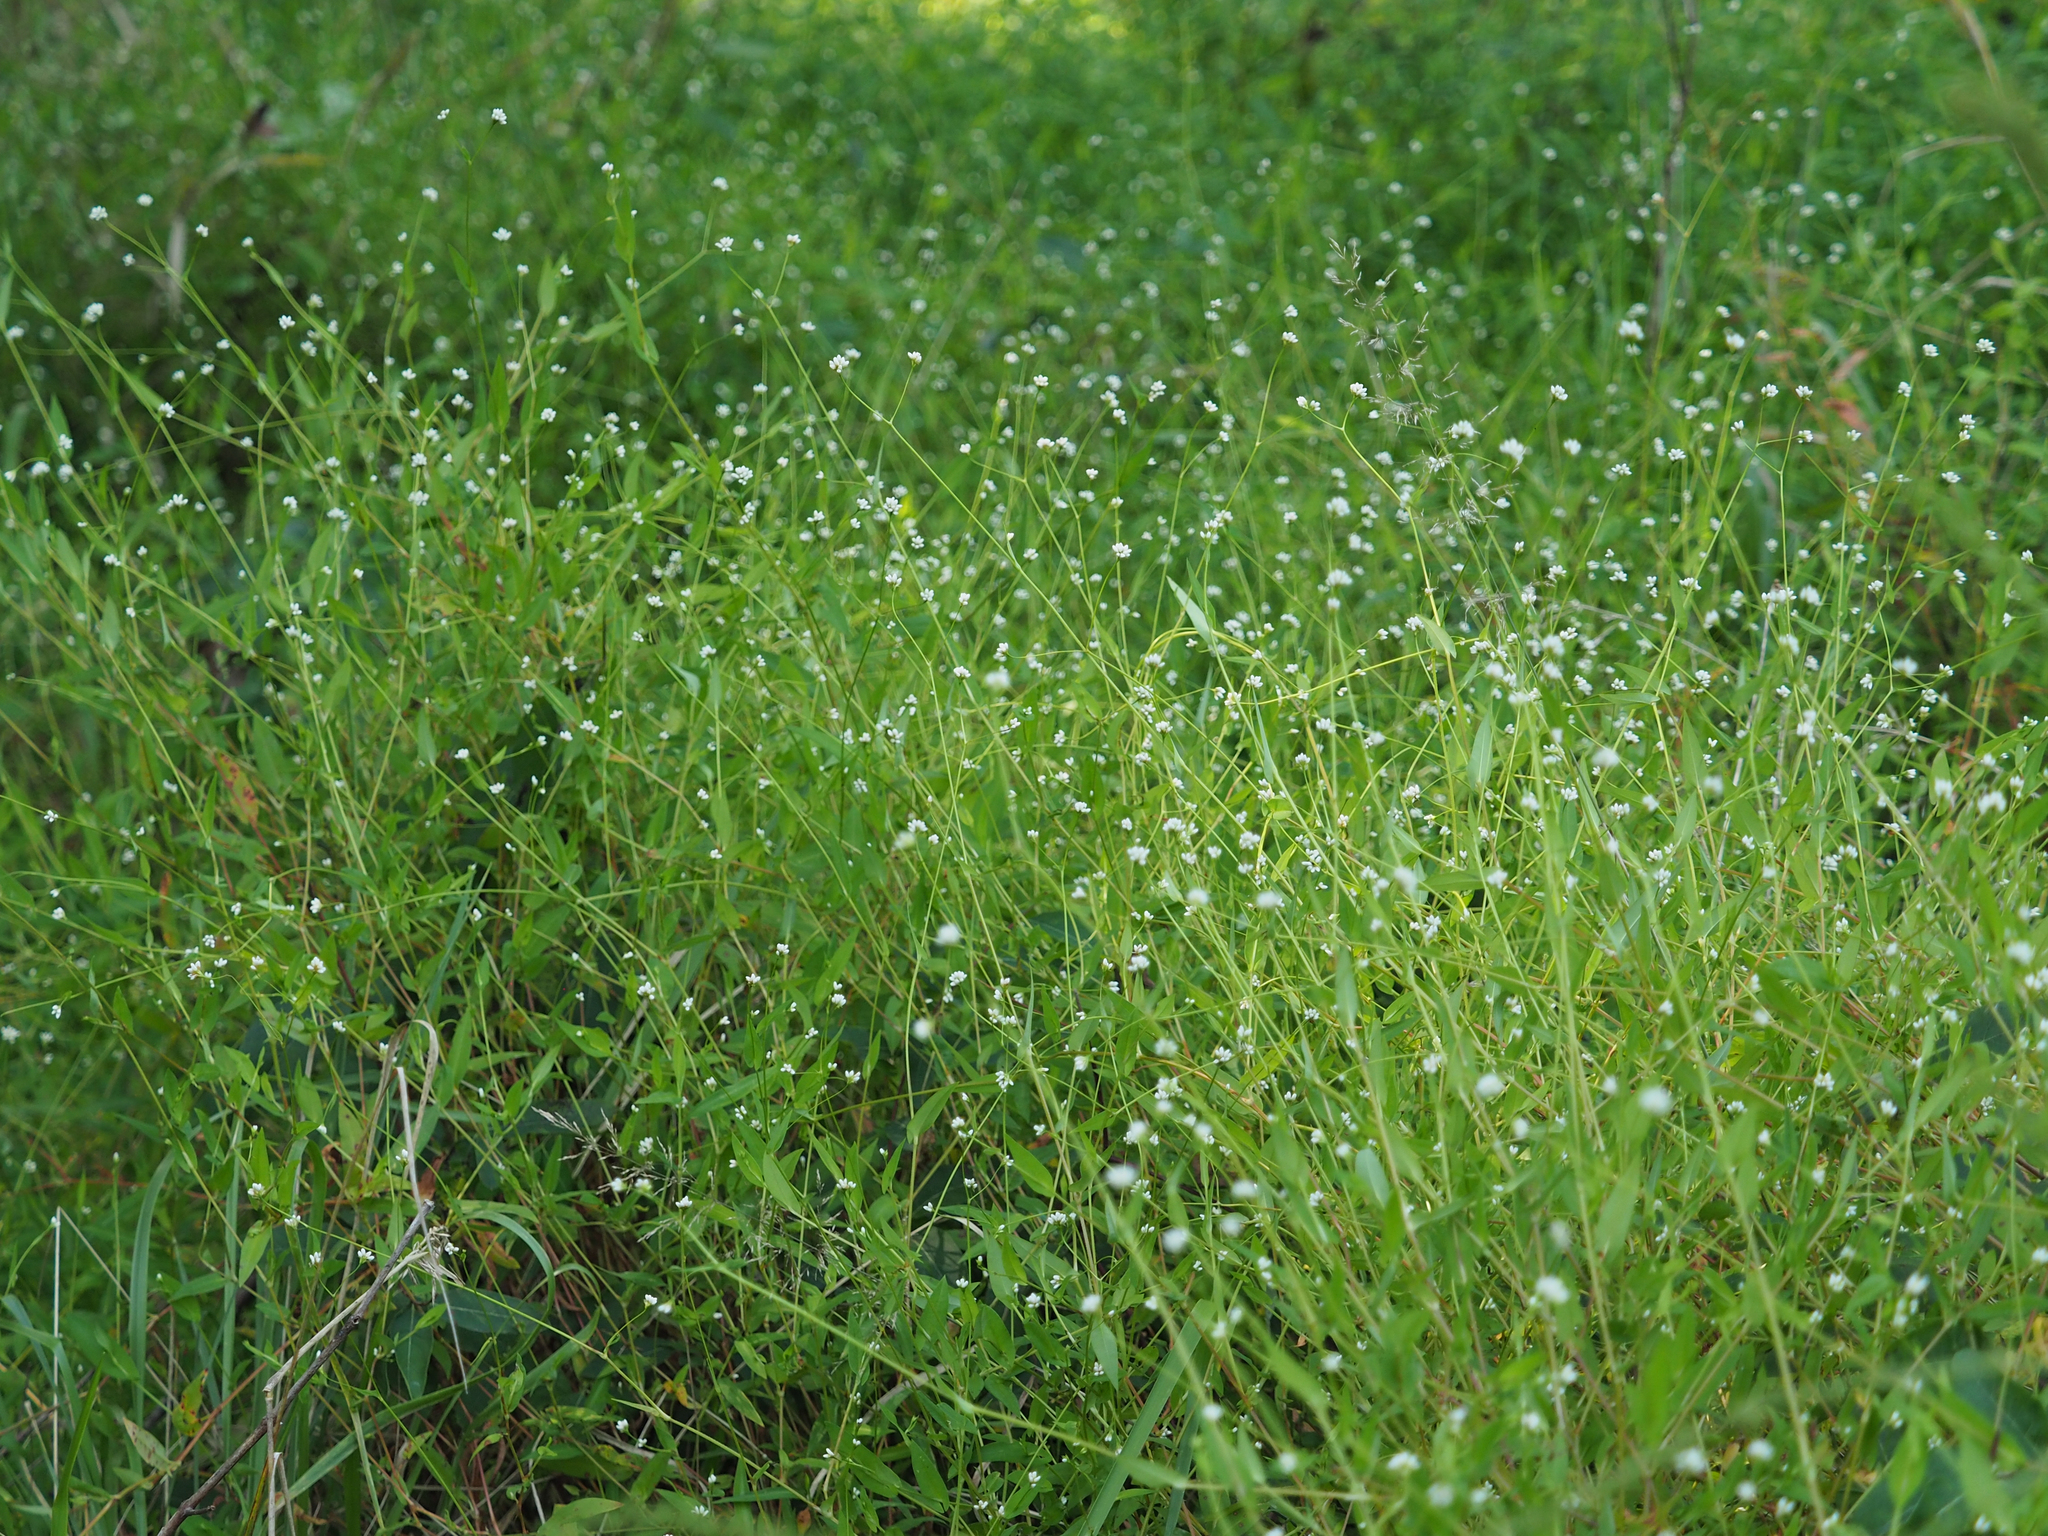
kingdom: Plantae
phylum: Tracheophyta
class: Magnoliopsida
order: Caryophyllales
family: Polygonaceae
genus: Persicaria
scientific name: Persicaria sagittata
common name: American tearthumb
